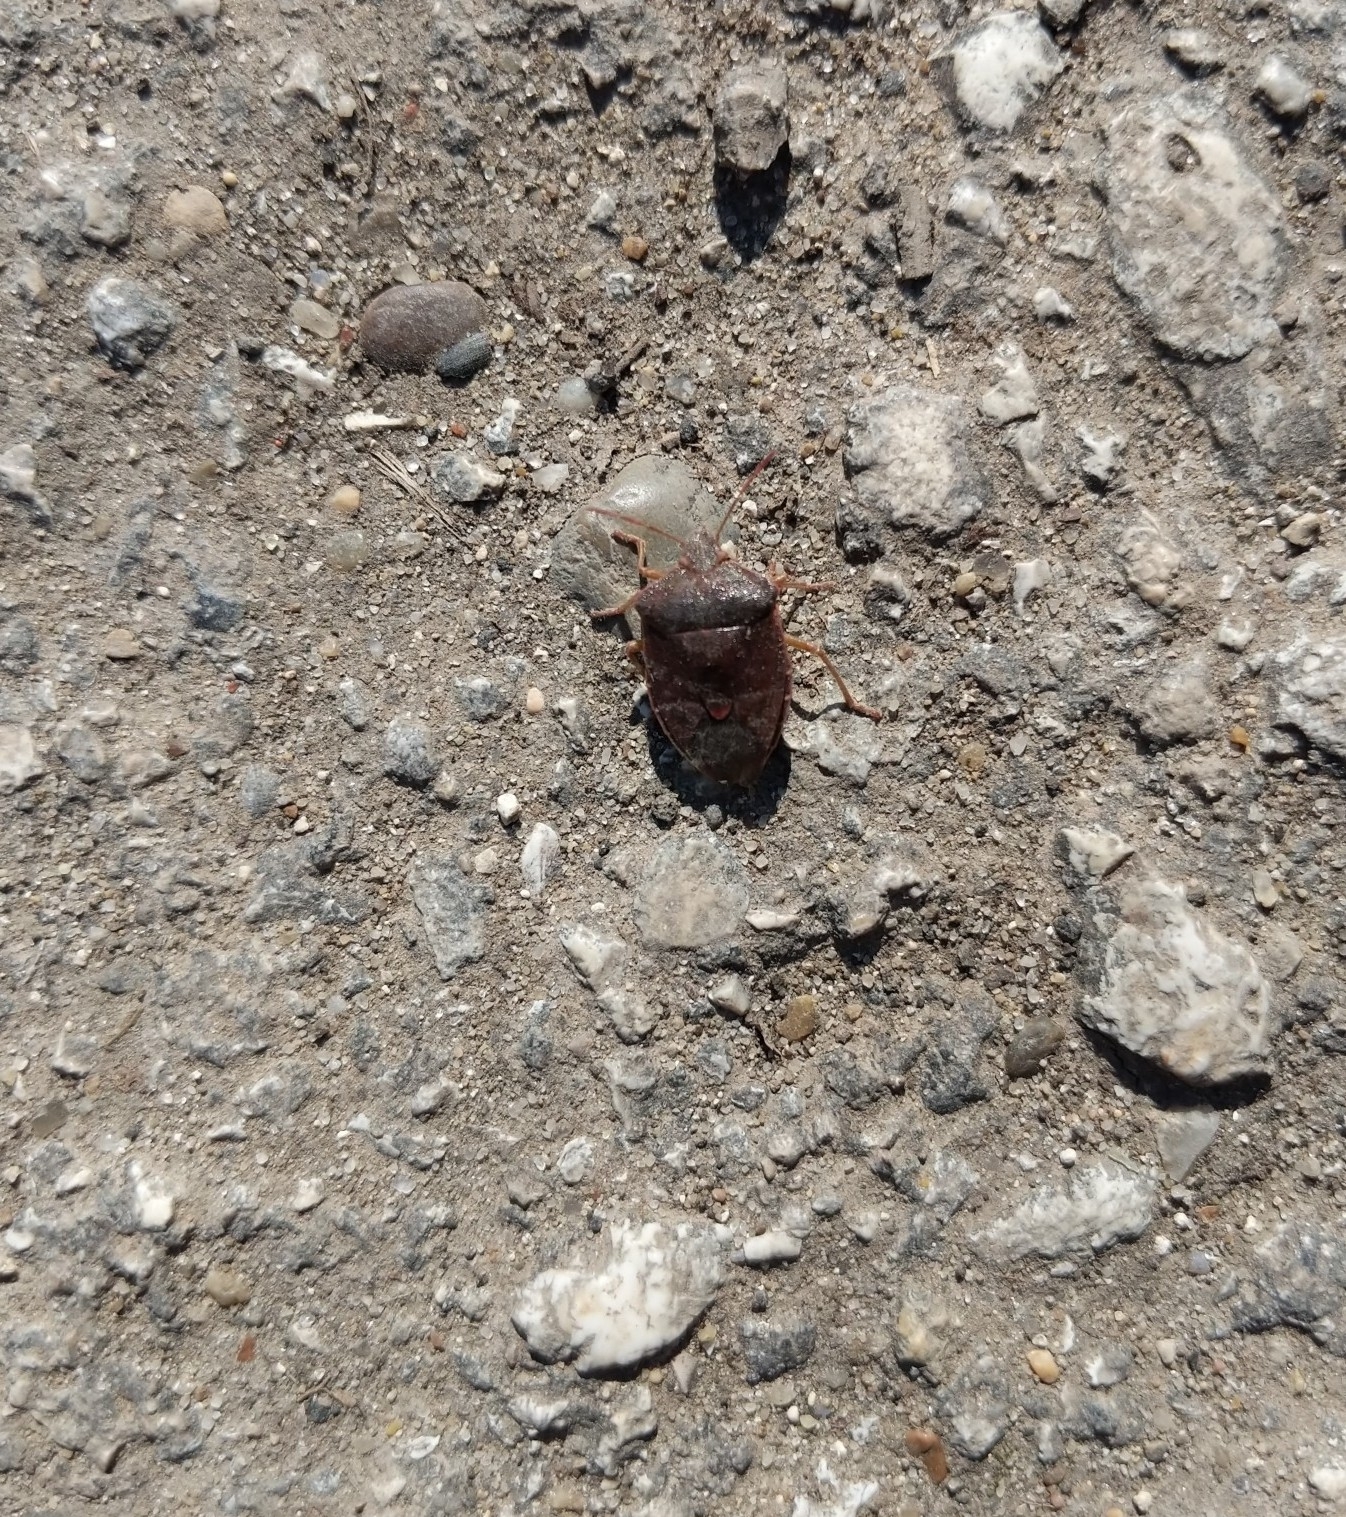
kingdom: Animalia
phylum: Arthropoda
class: Insecta
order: Hemiptera
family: Pentatomidae
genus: Palomena
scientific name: Palomena prasina
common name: Green shieldbug
